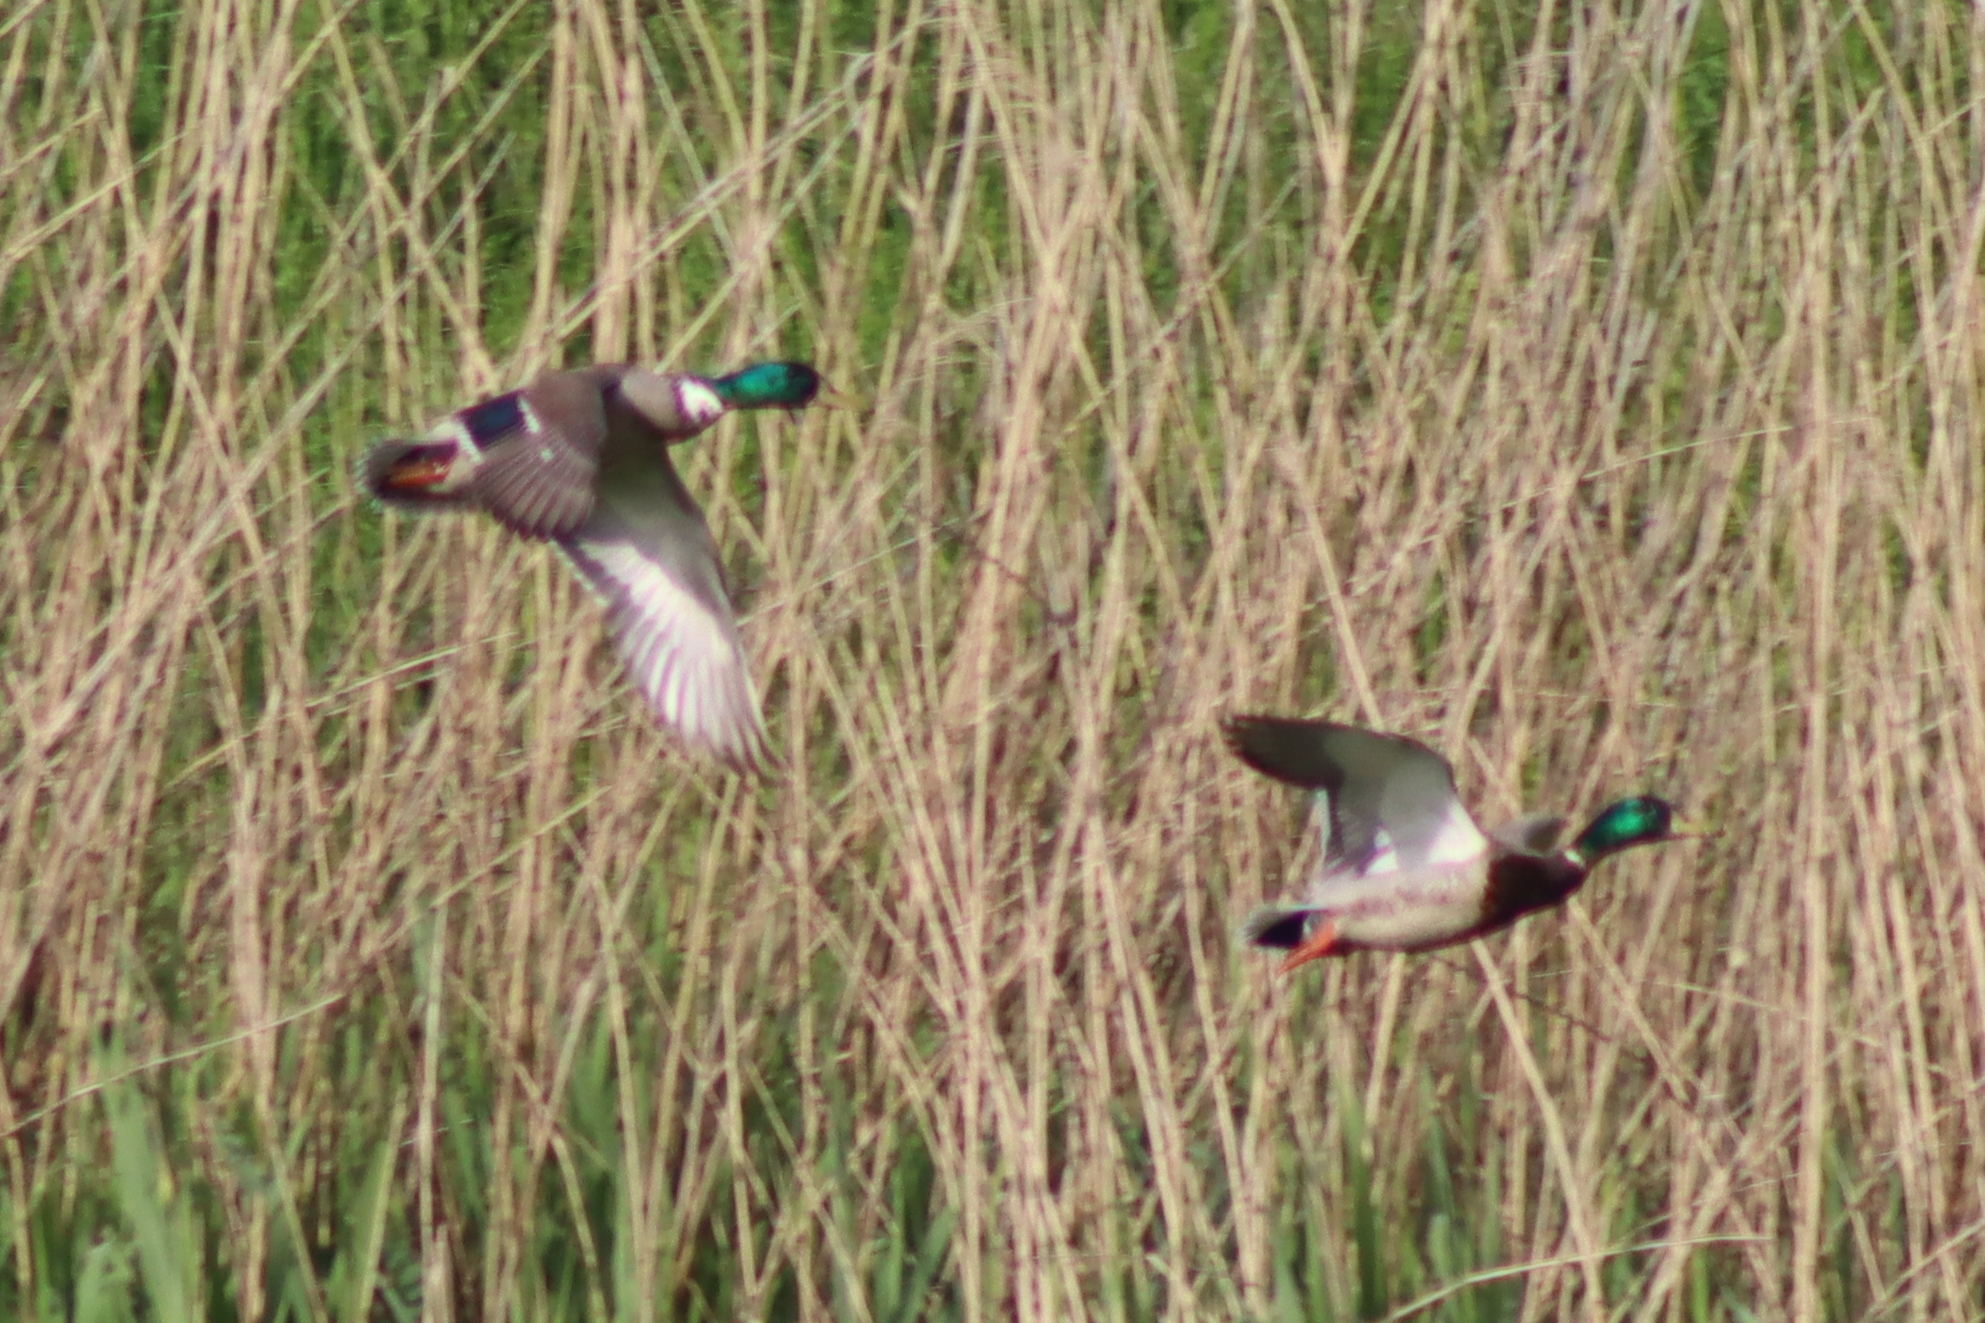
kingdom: Animalia
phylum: Chordata
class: Aves
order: Anseriformes
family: Anatidae
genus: Anas
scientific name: Anas platyrhynchos
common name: Mallard
